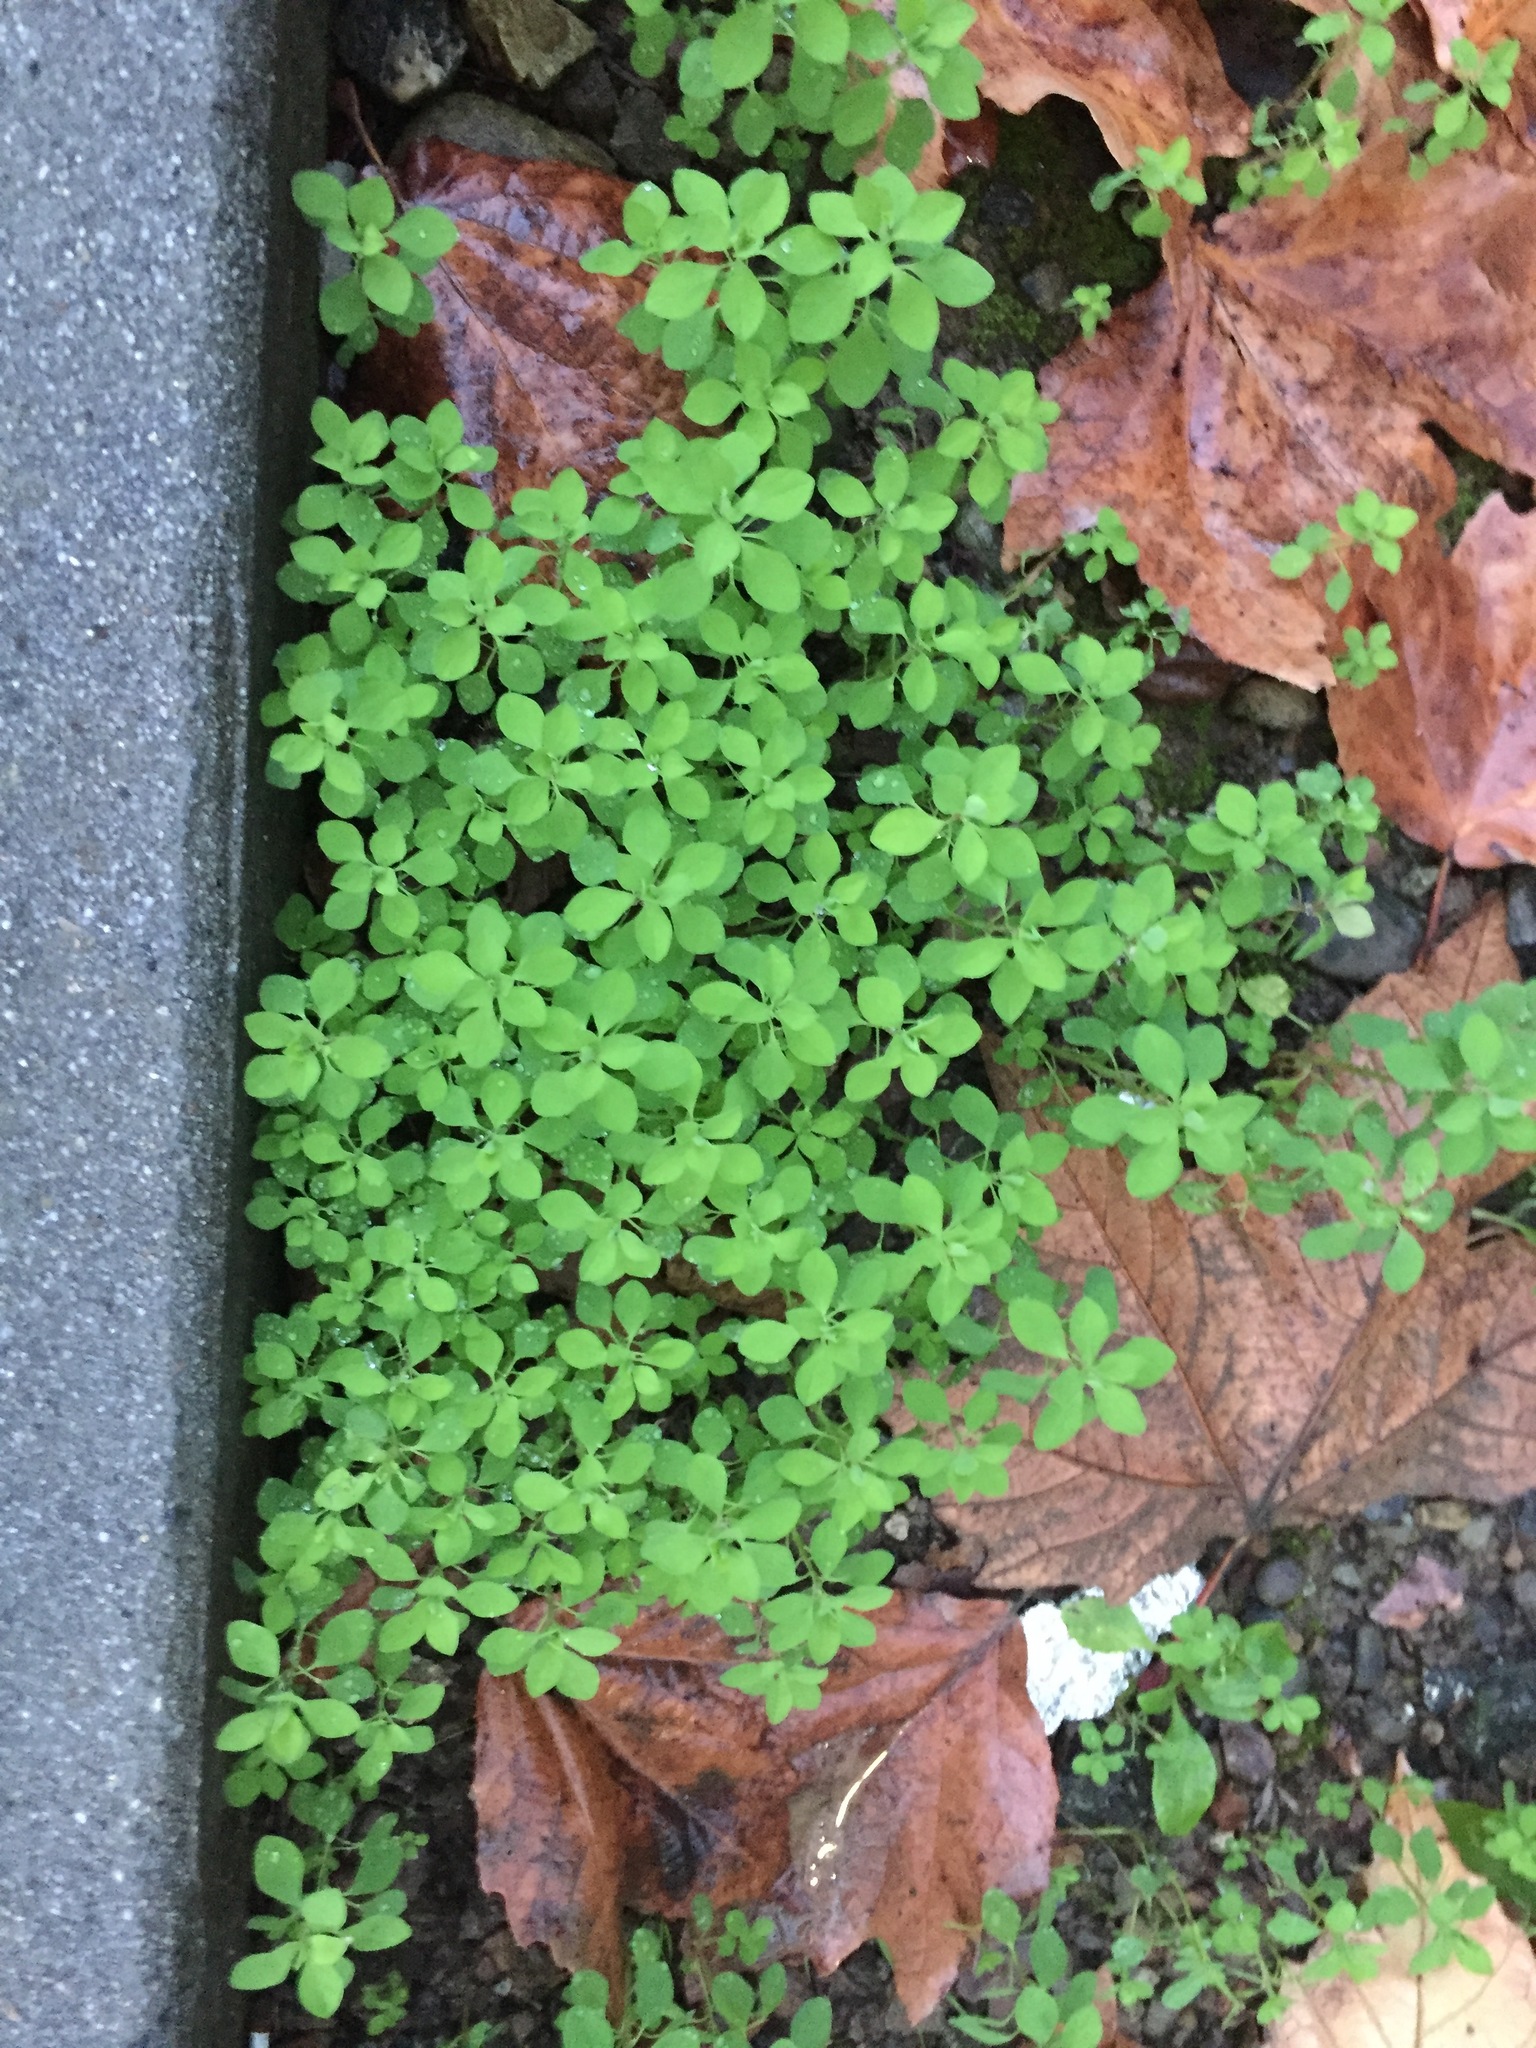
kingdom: Plantae
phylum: Tracheophyta
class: Magnoliopsida
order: Malpighiales
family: Euphorbiaceae
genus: Euphorbia
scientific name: Euphorbia peplus
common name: Petty spurge
